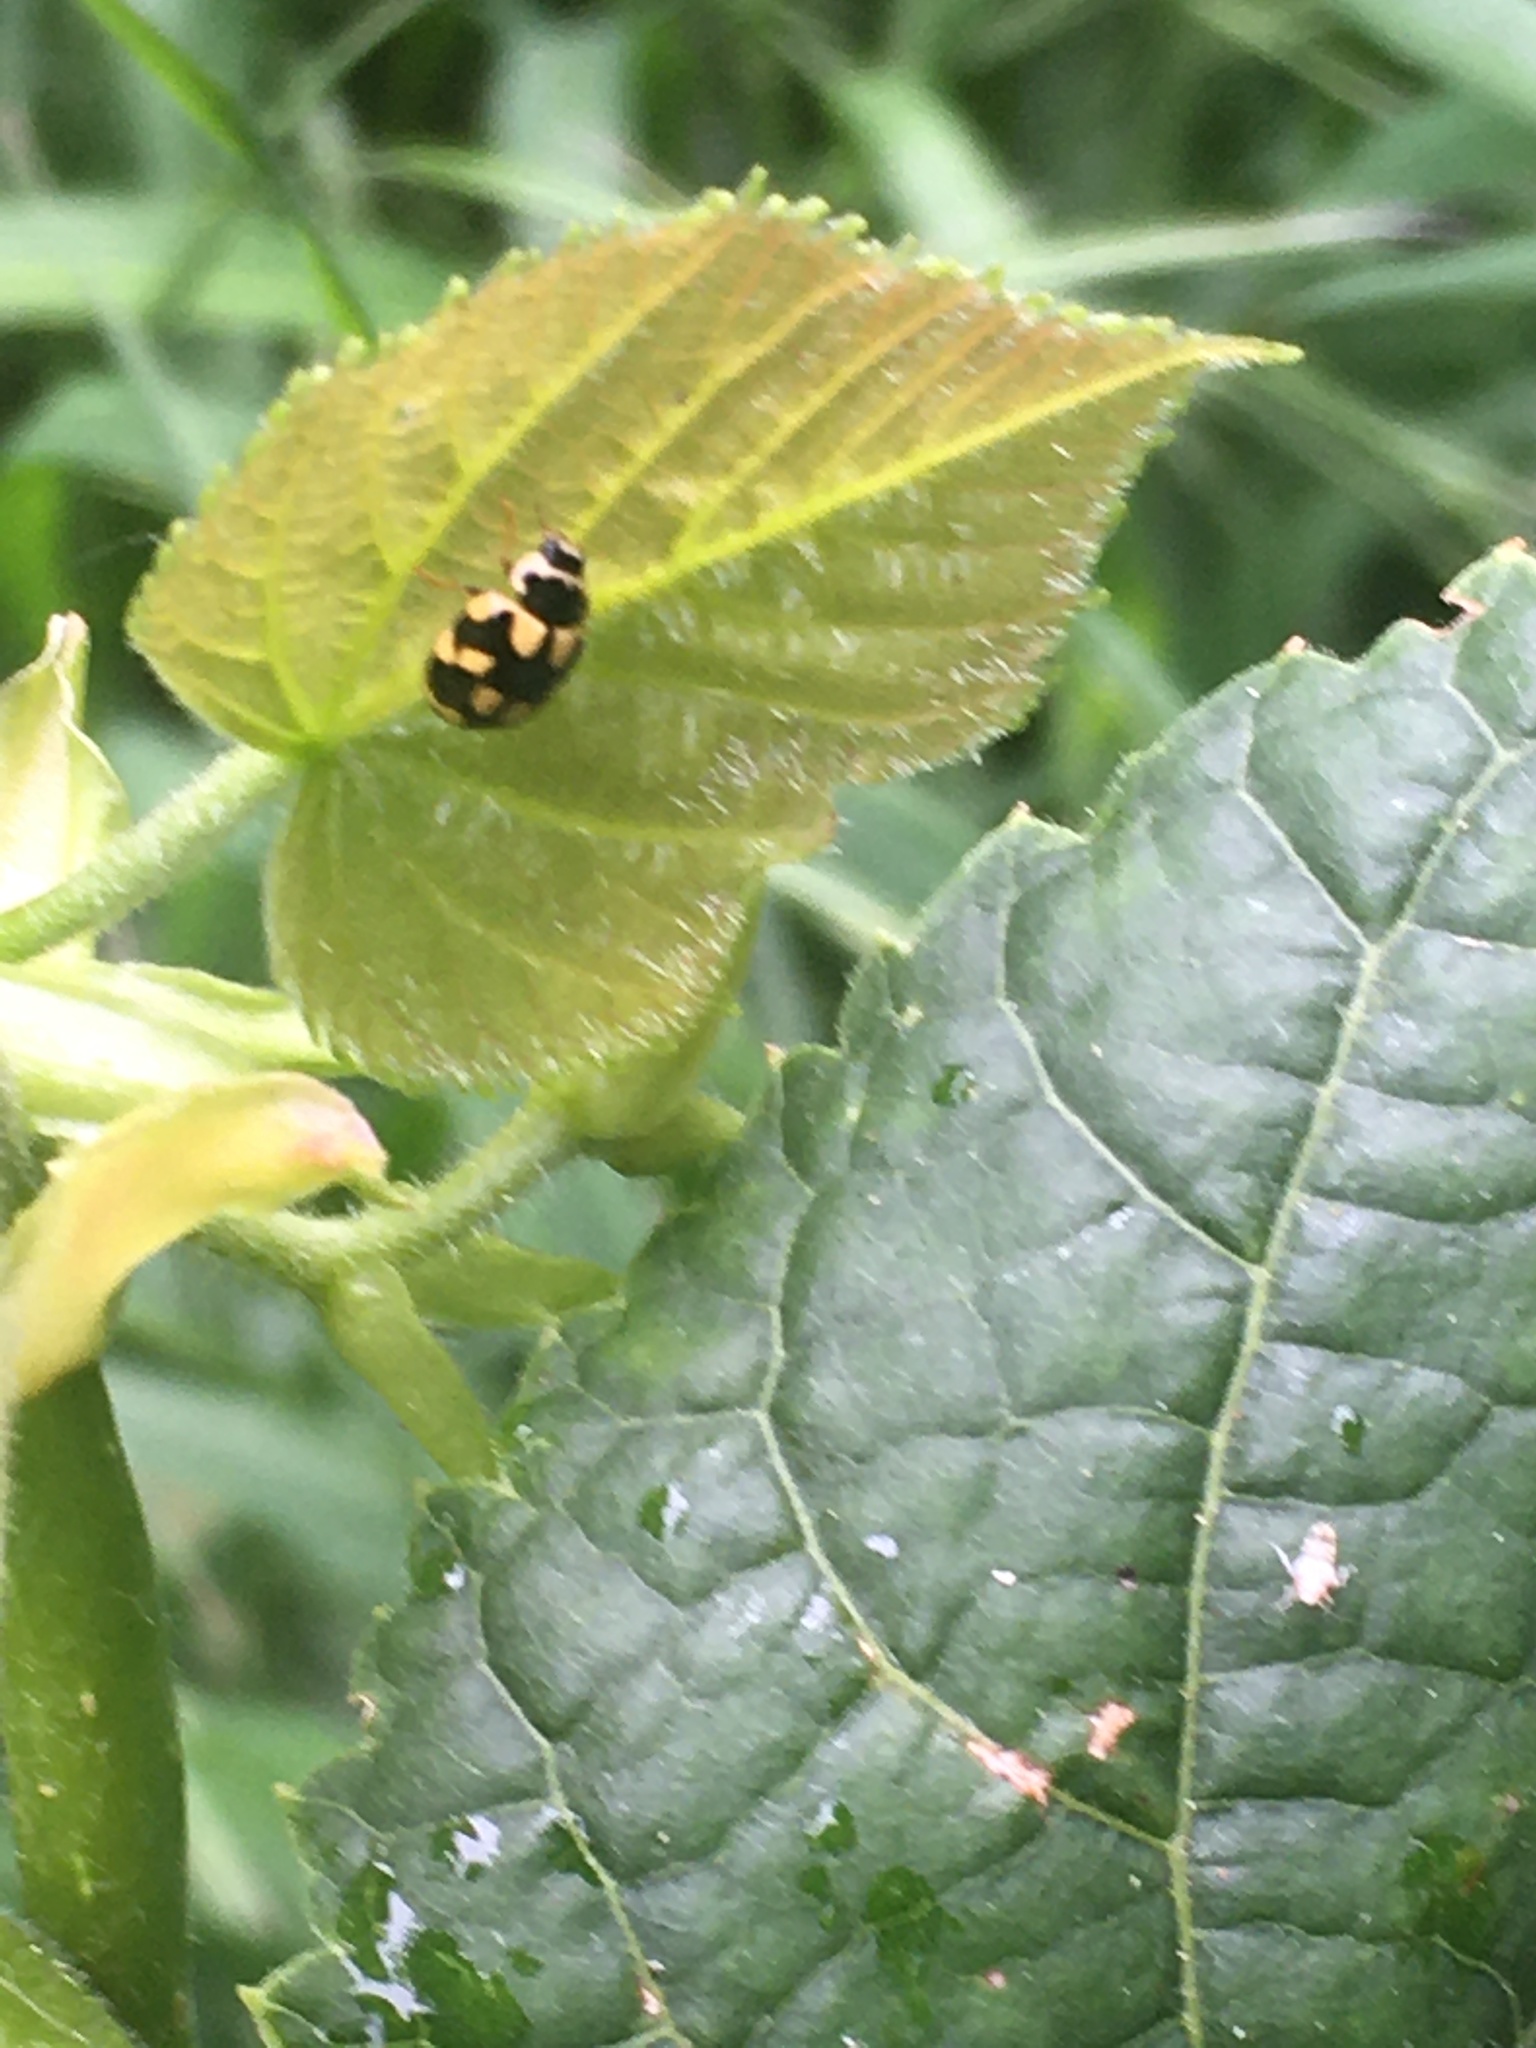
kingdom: Animalia
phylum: Arthropoda
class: Insecta
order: Coleoptera
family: Coccinellidae
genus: Propylaea
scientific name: Propylaea quatuordecimpunctata
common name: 14-spotted ladybird beetle
